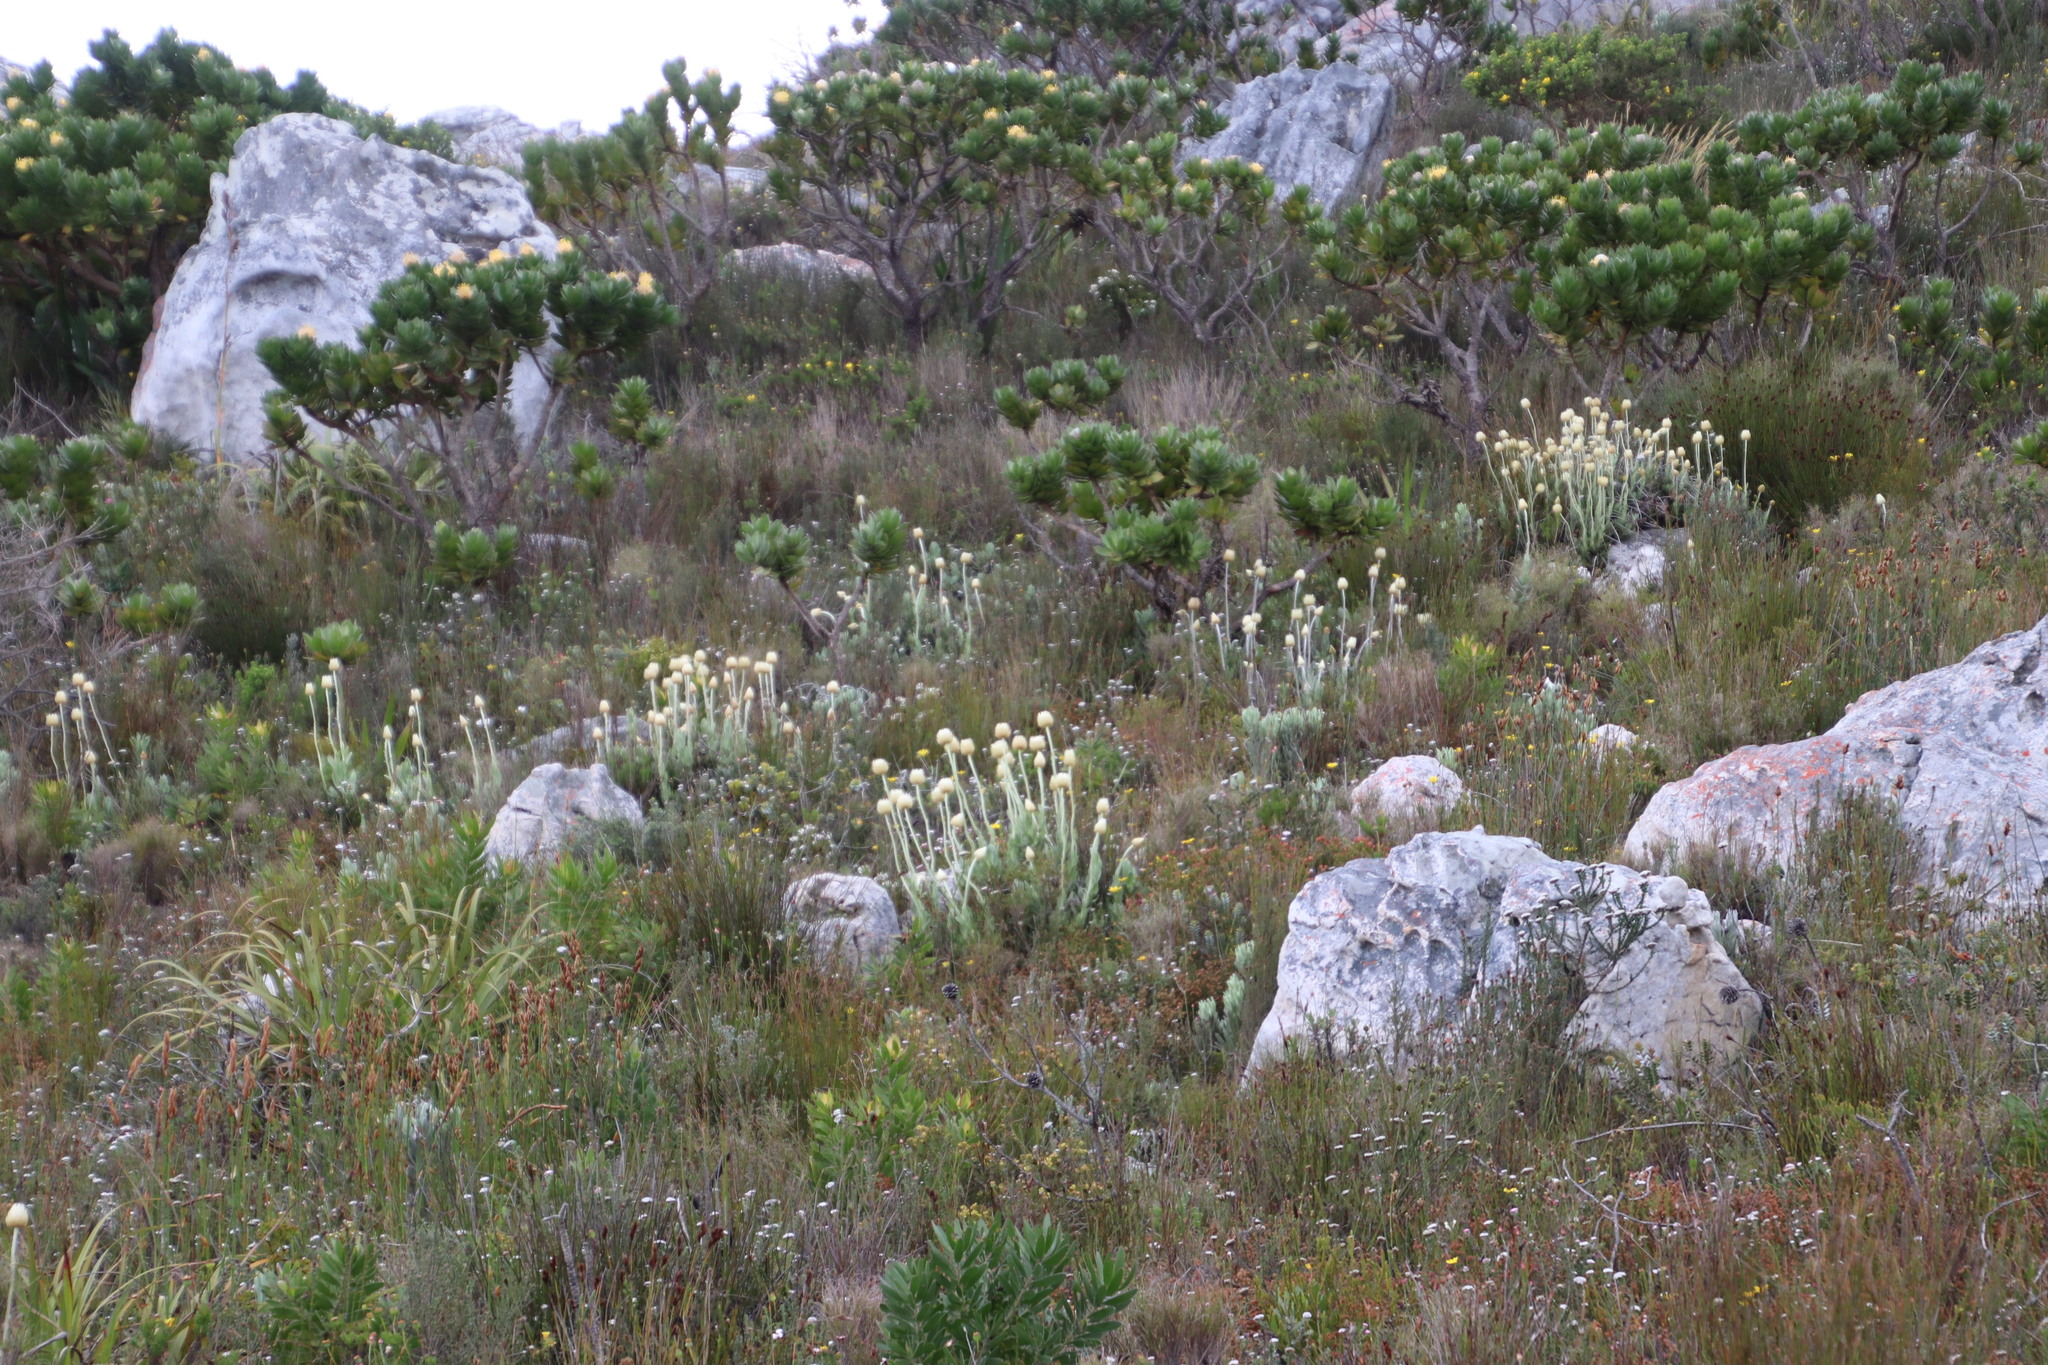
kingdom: Plantae
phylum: Tracheophyta
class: Magnoliopsida
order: Asterales
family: Asteraceae
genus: Syncarpha
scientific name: Syncarpha speciosissima
